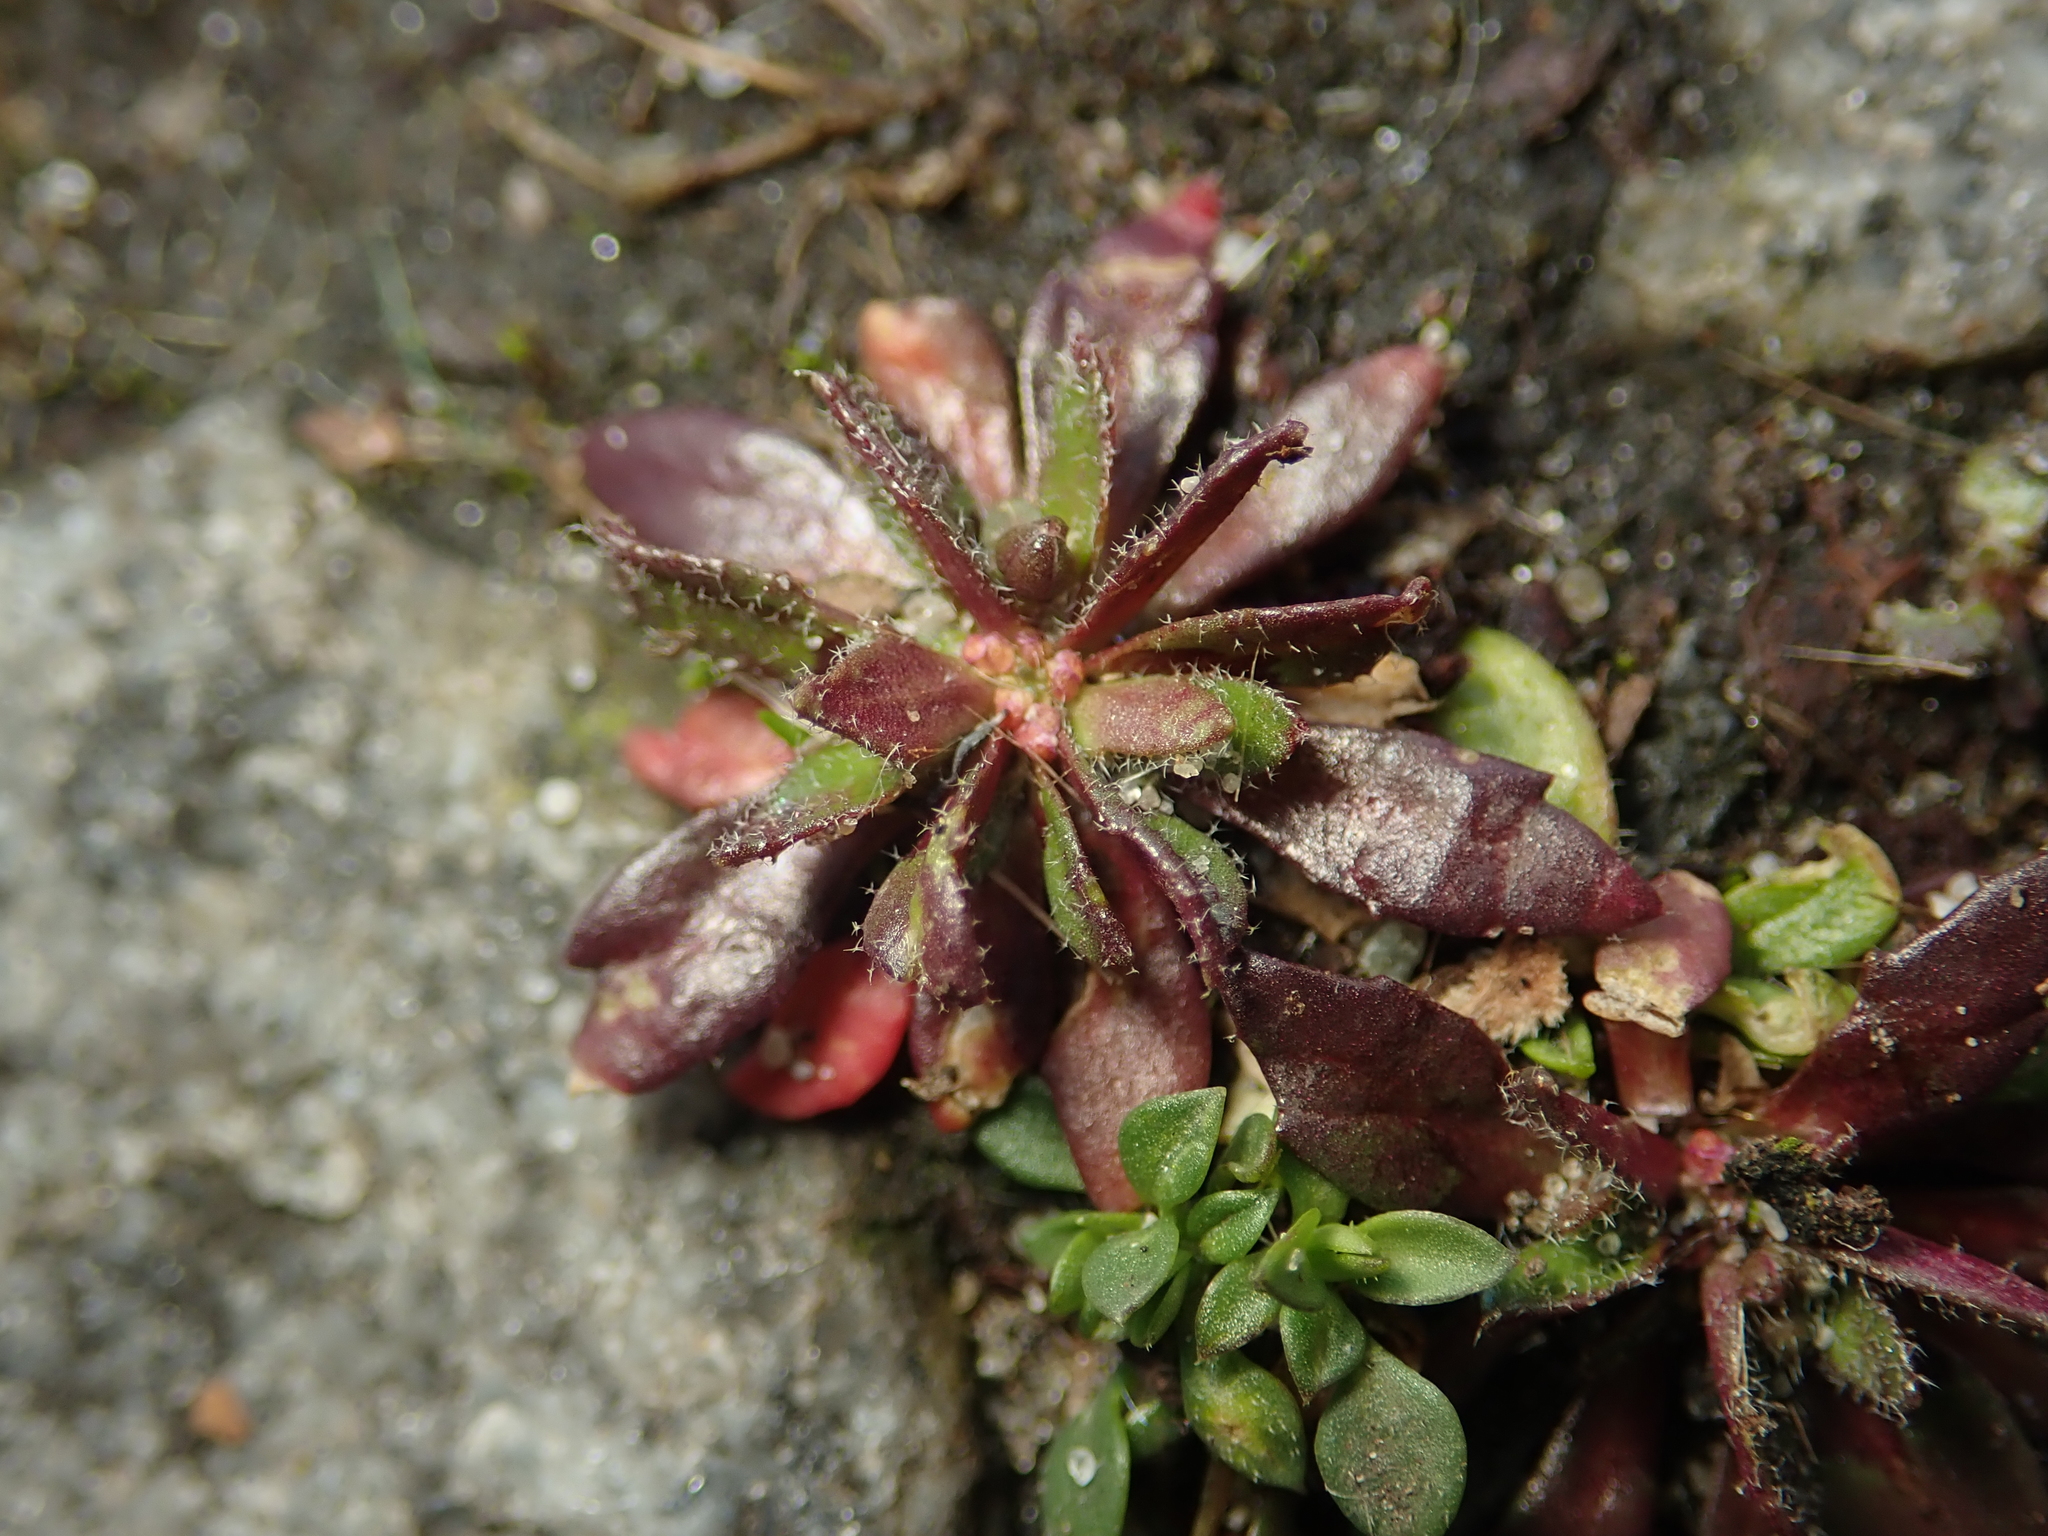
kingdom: Plantae
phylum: Tracheophyta
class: Magnoliopsida
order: Brassicales
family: Brassicaceae
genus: Draba
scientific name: Draba verna
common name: Spring draba
